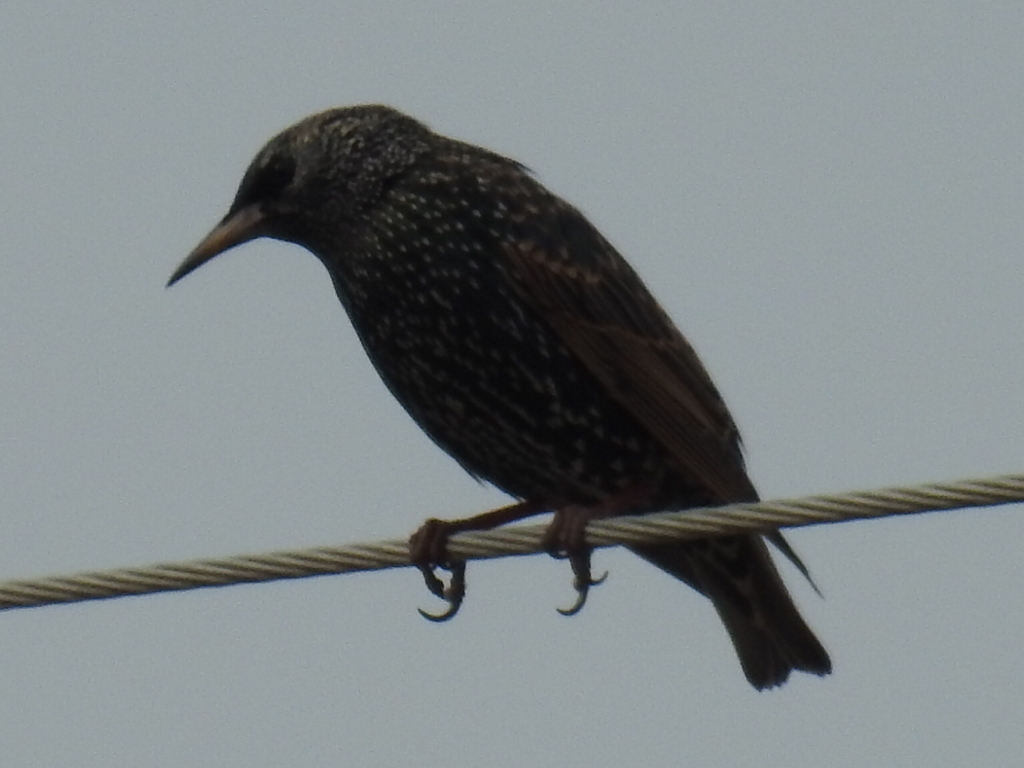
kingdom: Animalia
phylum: Chordata
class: Aves
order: Passeriformes
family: Sturnidae
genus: Sturnus
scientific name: Sturnus vulgaris
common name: Common starling
